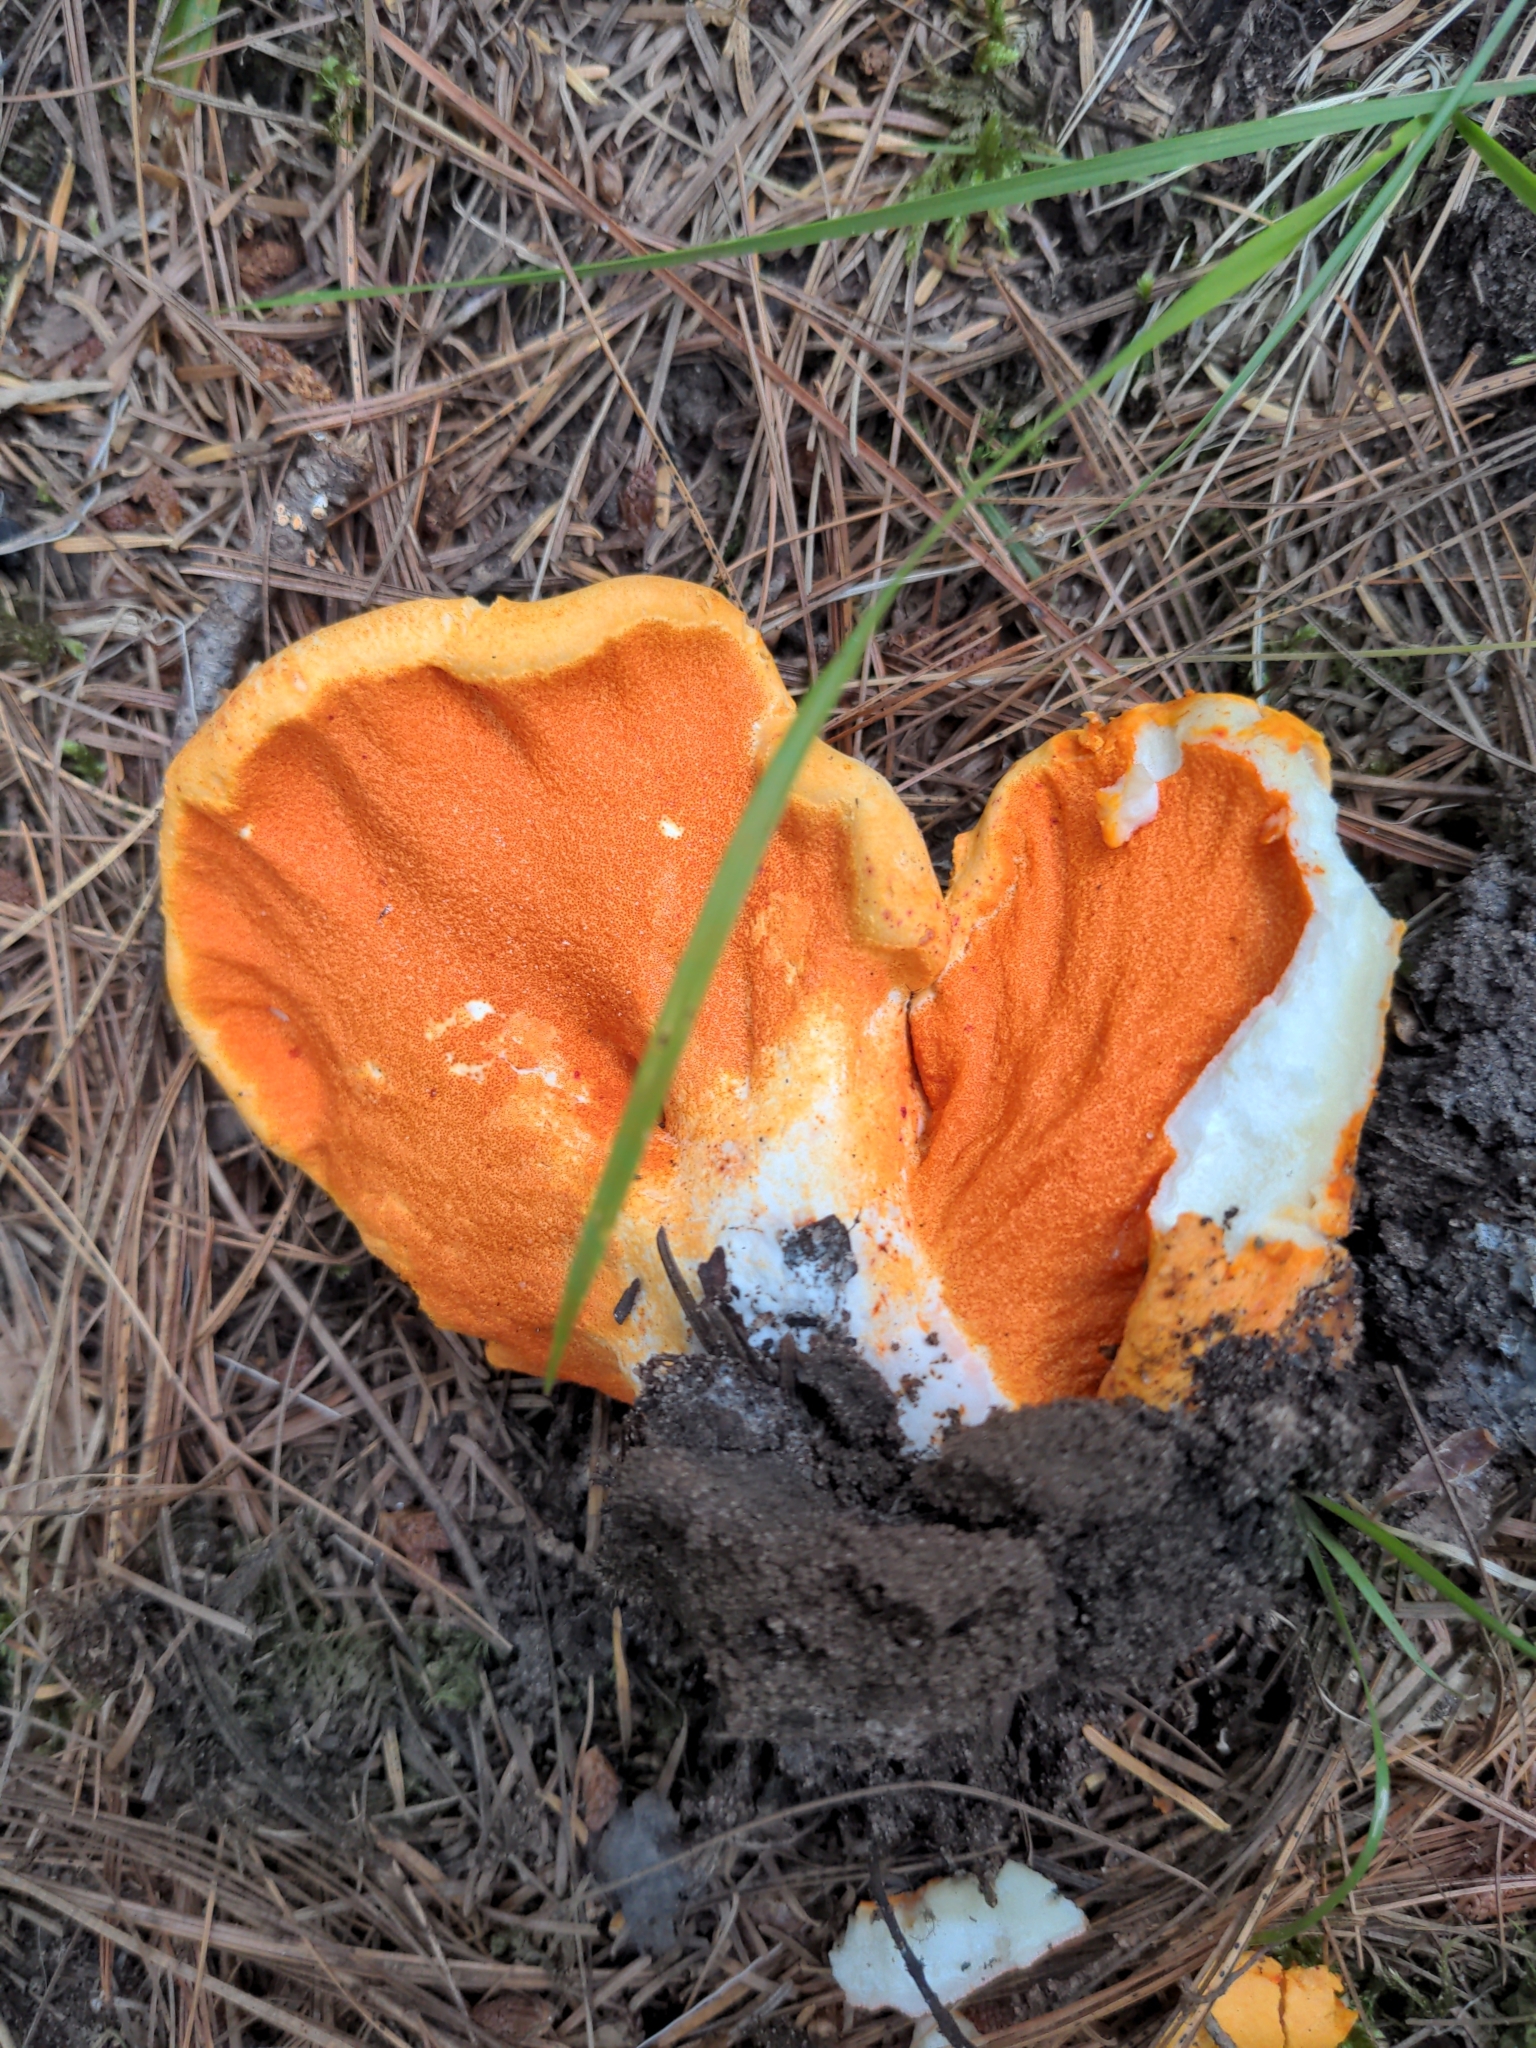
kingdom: Fungi
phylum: Ascomycota
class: Sordariomycetes
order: Hypocreales
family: Hypocreaceae
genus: Hypomyces
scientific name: Hypomyces lactifluorum
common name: Lobster mushroom
